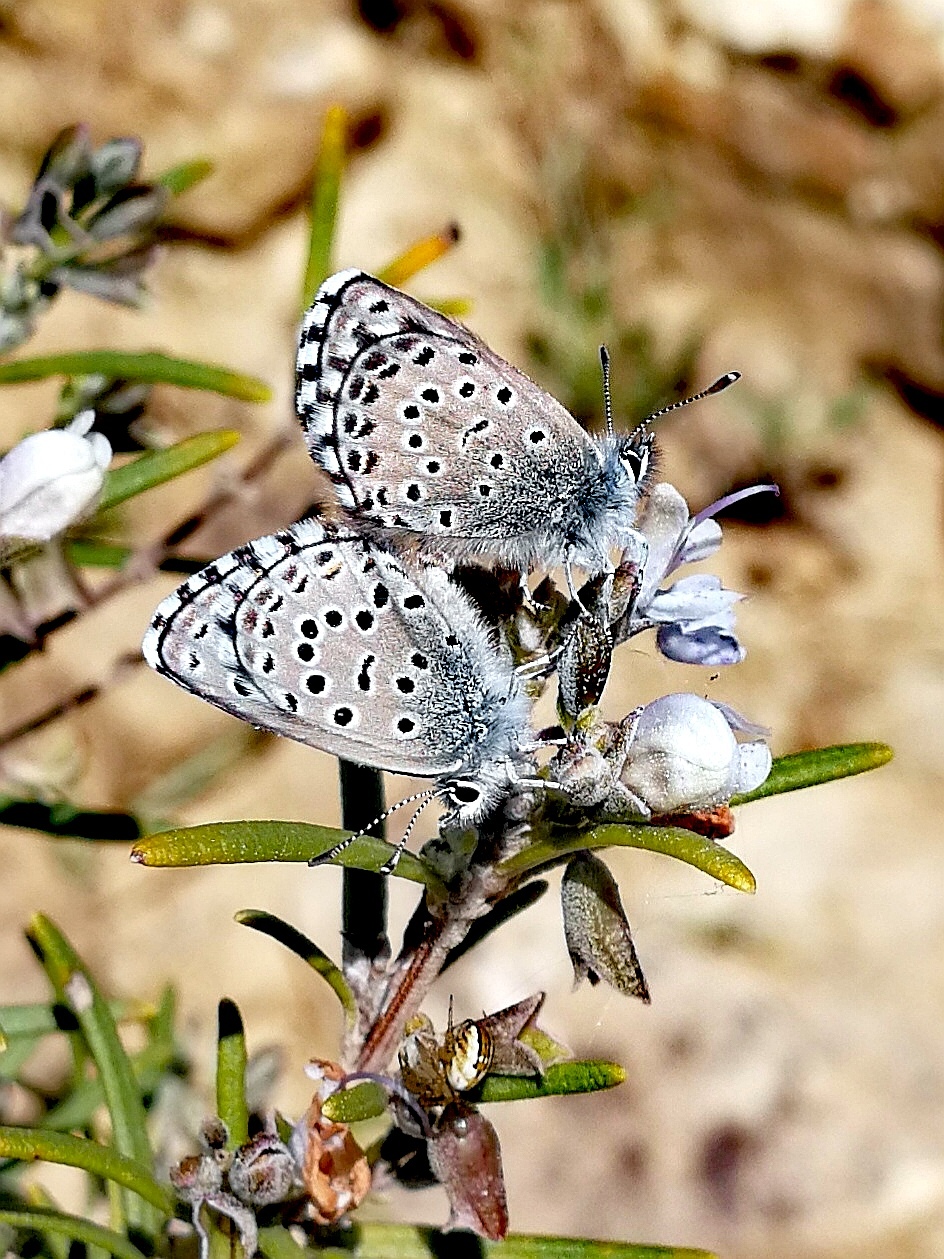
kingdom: Animalia
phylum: Arthropoda
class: Insecta
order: Lepidoptera
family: Lycaenidae
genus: Pseudophilotes
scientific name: Pseudophilotes baton
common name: Baton blue
